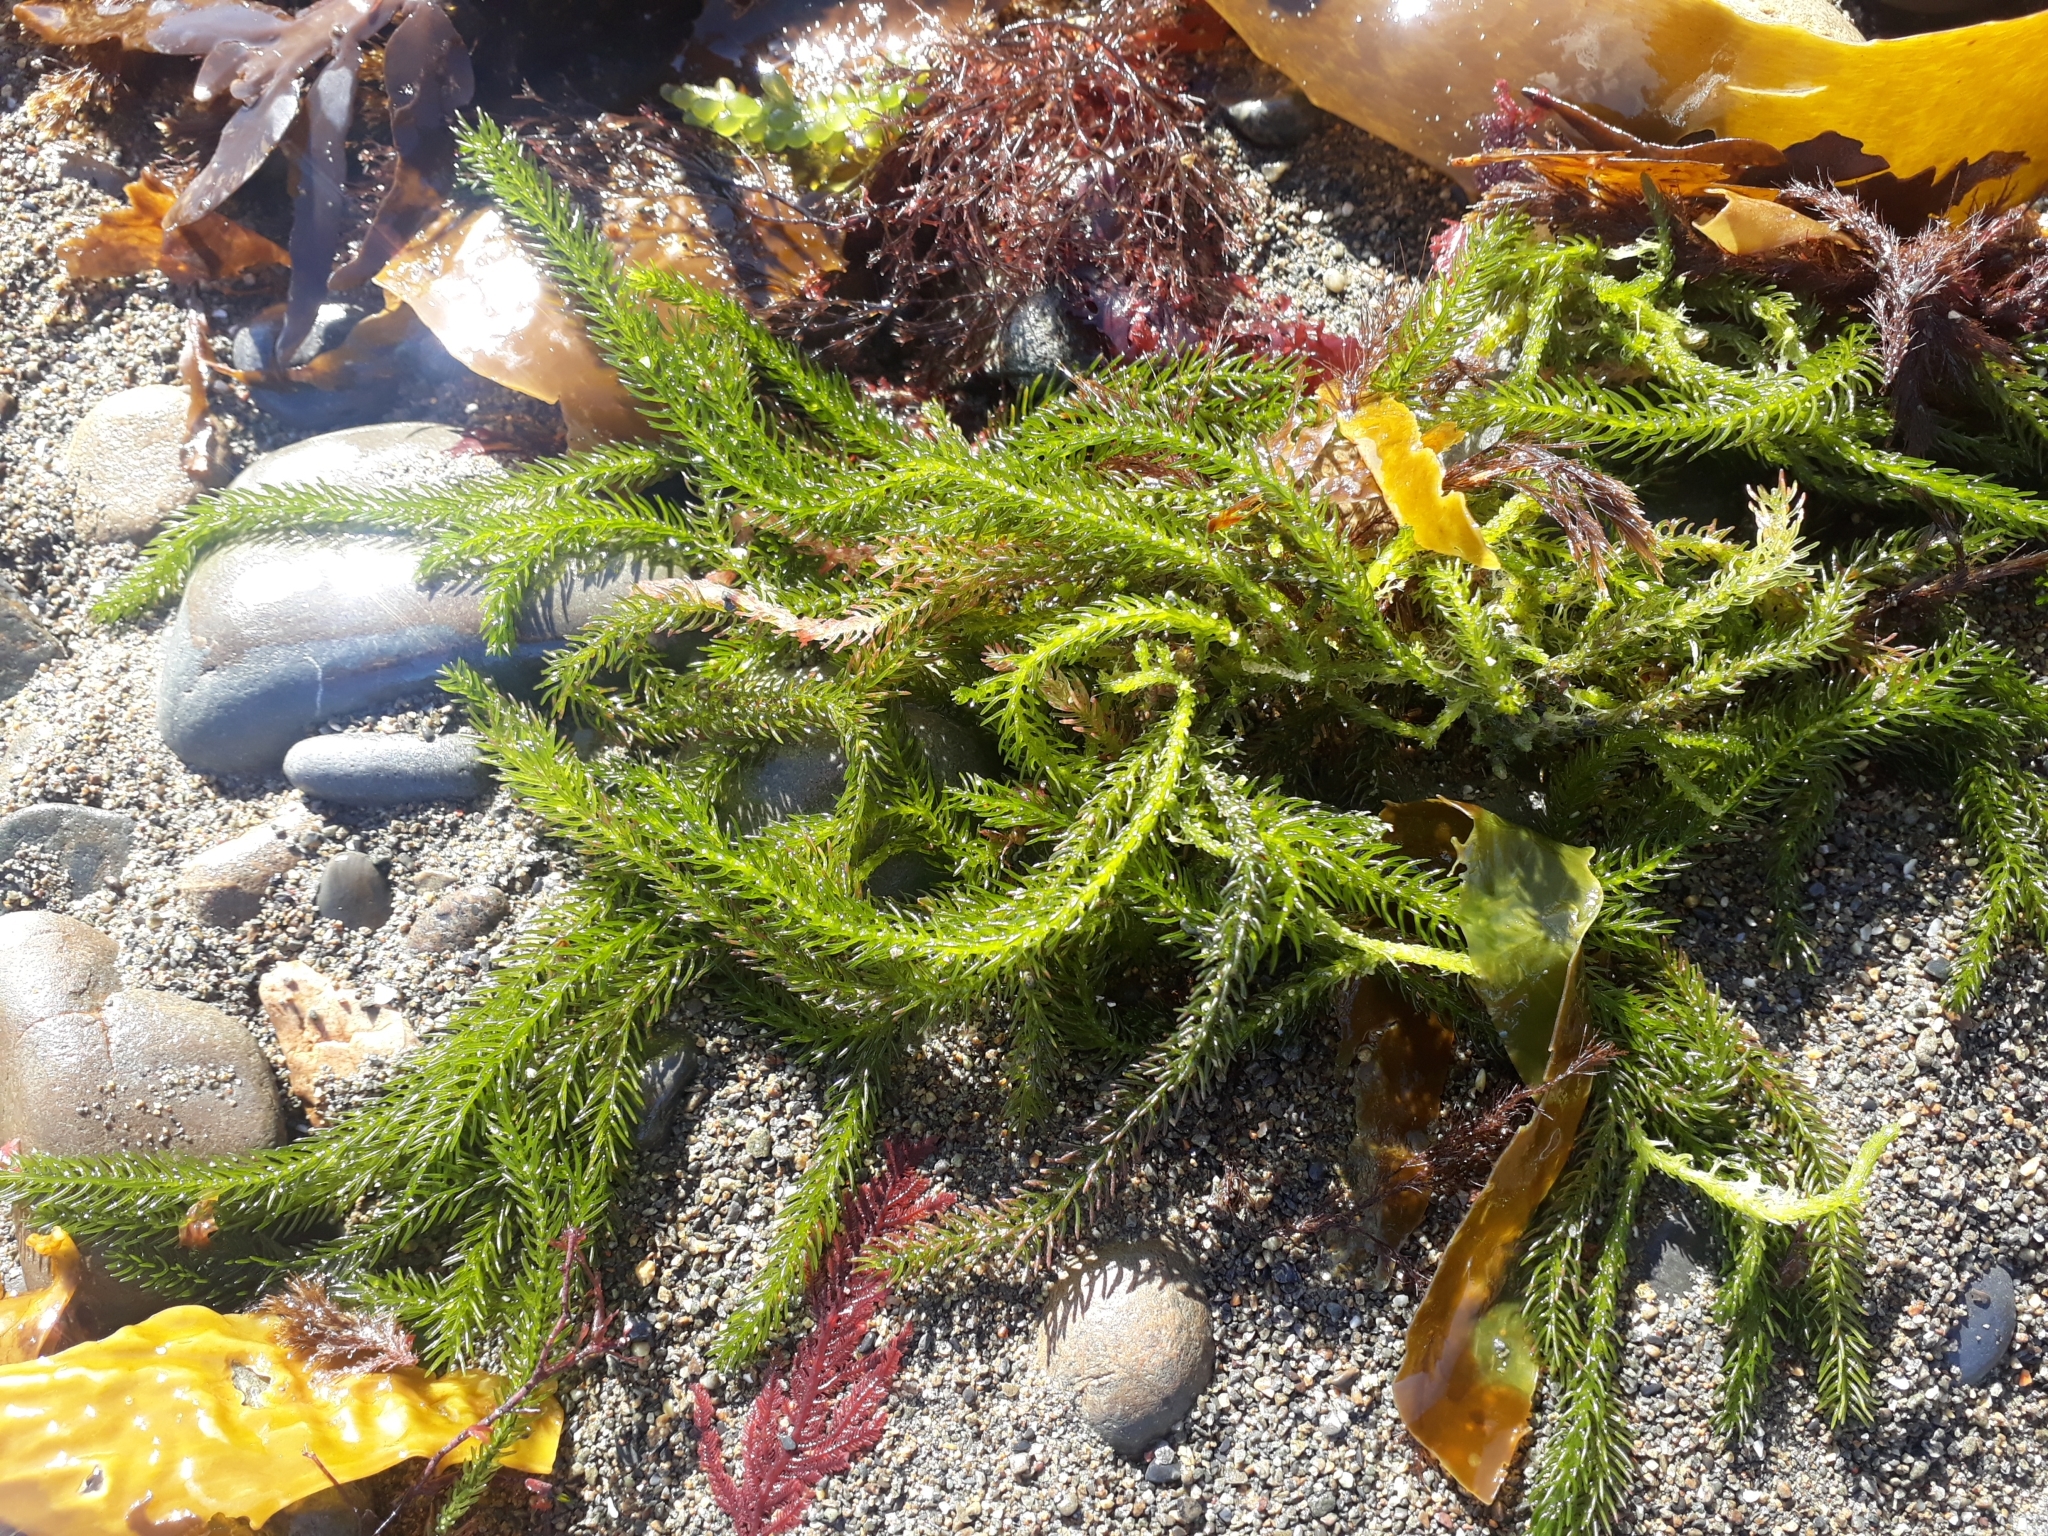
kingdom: Plantae
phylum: Chlorophyta
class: Ulvophyceae
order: Bryopsidales
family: Caulerpaceae
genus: Caulerpa
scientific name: Caulerpa brownii
